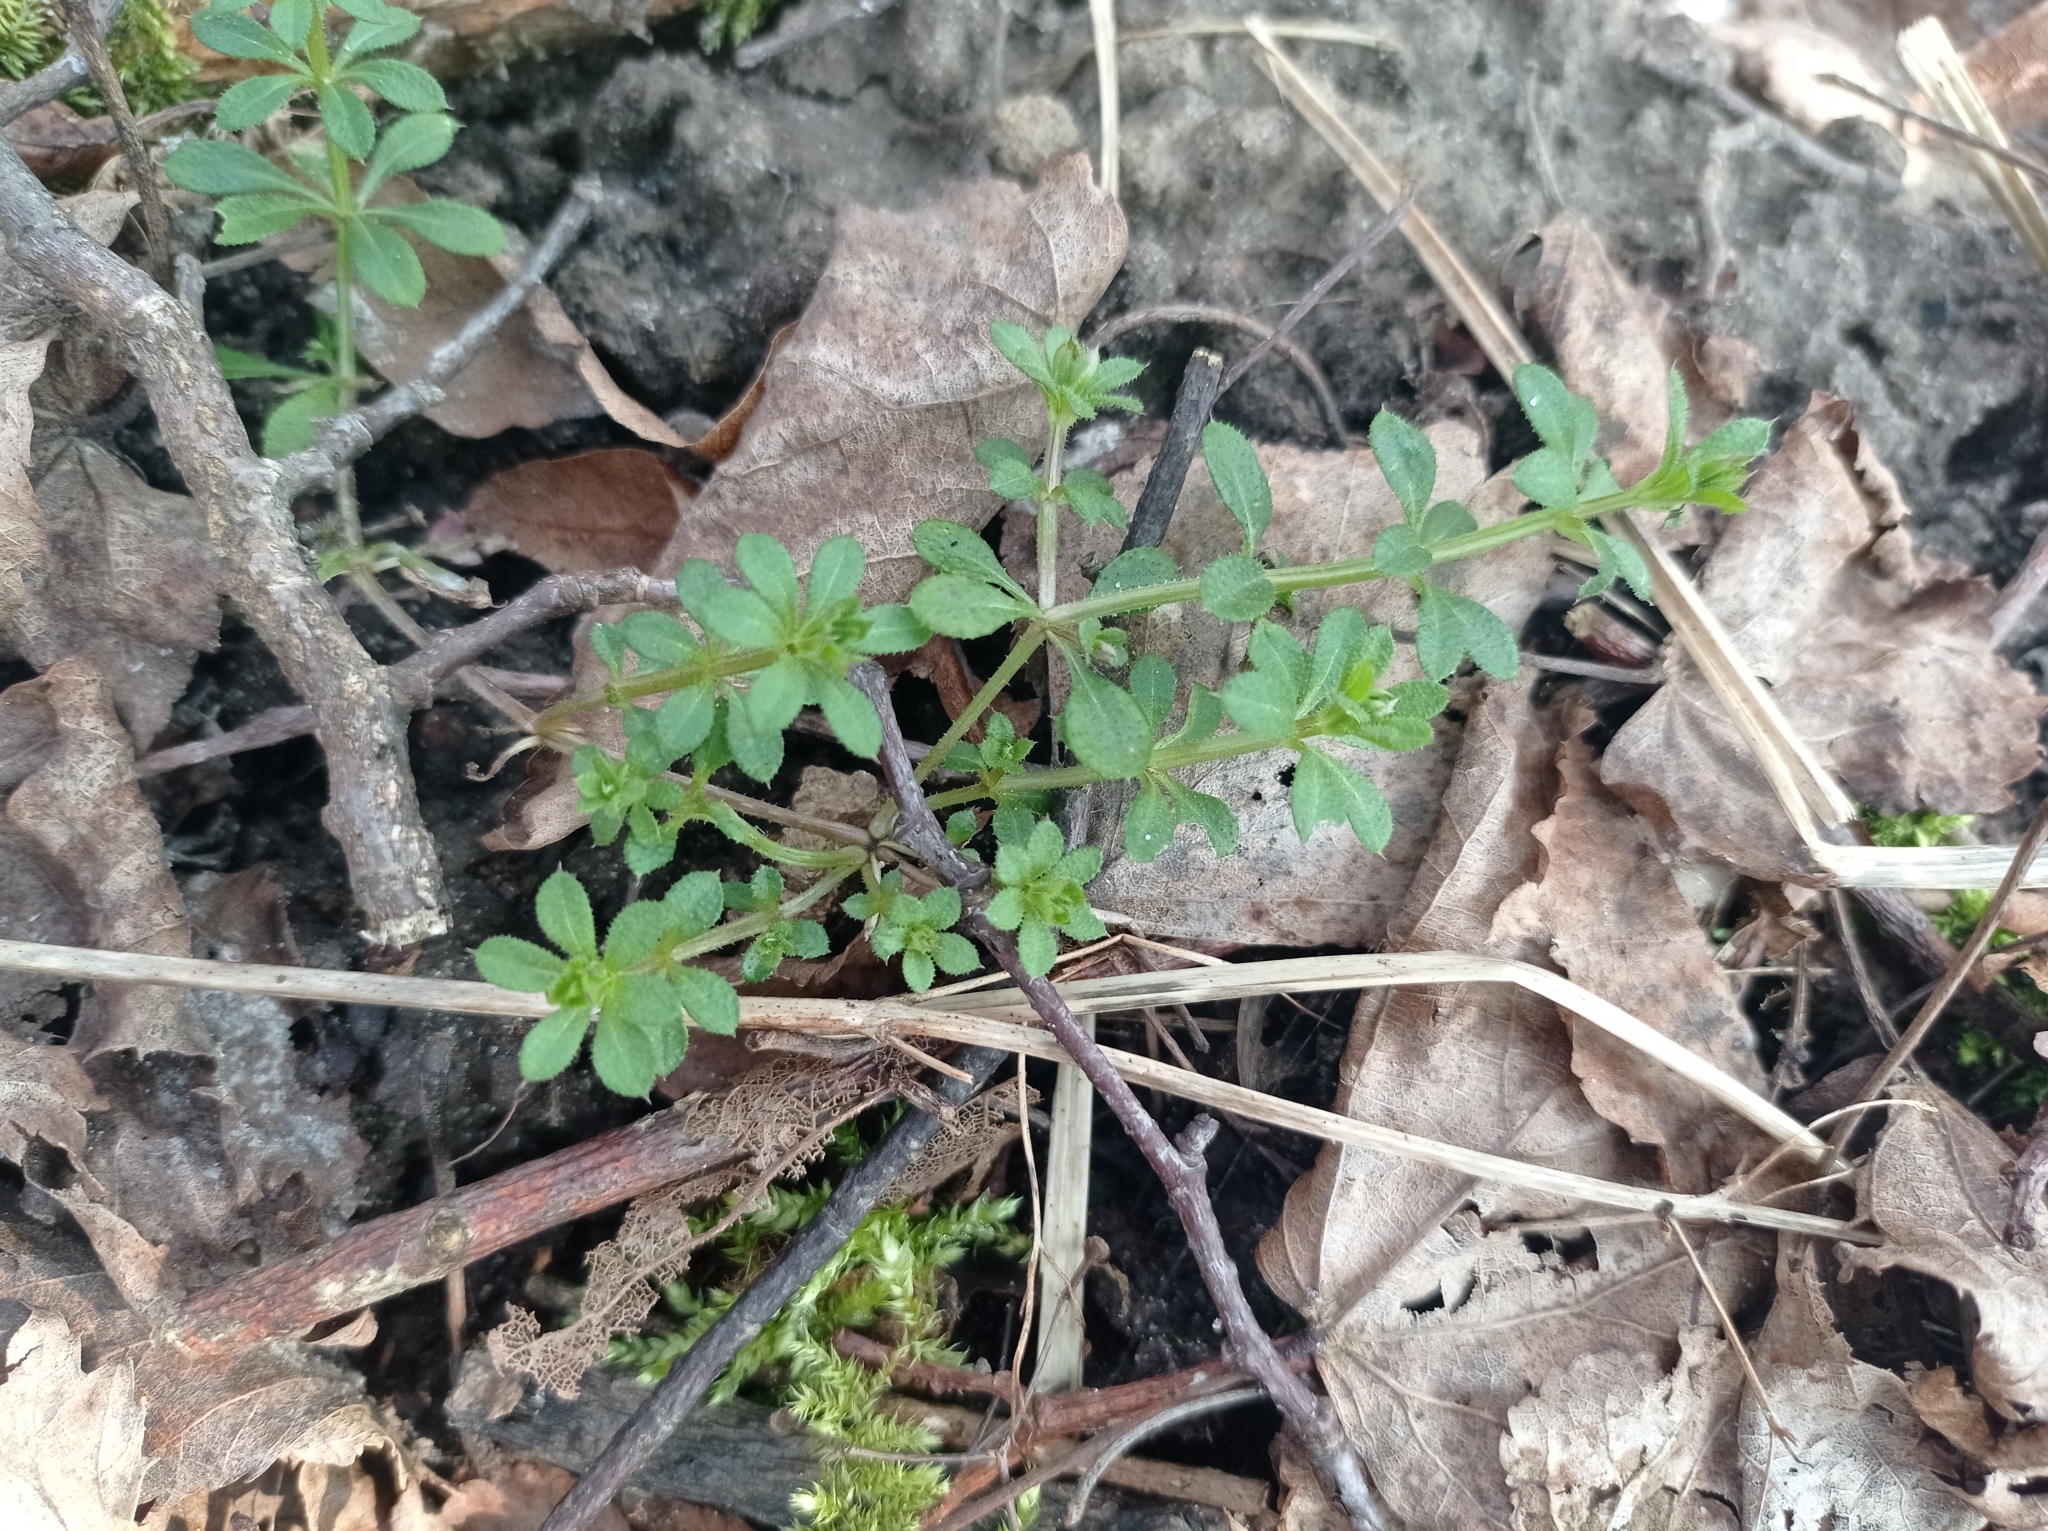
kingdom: Plantae
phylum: Tracheophyta
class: Magnoliopsida
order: Gentianales
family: Rubiaceae
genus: Galium
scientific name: Galium aparine
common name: Cleavers
